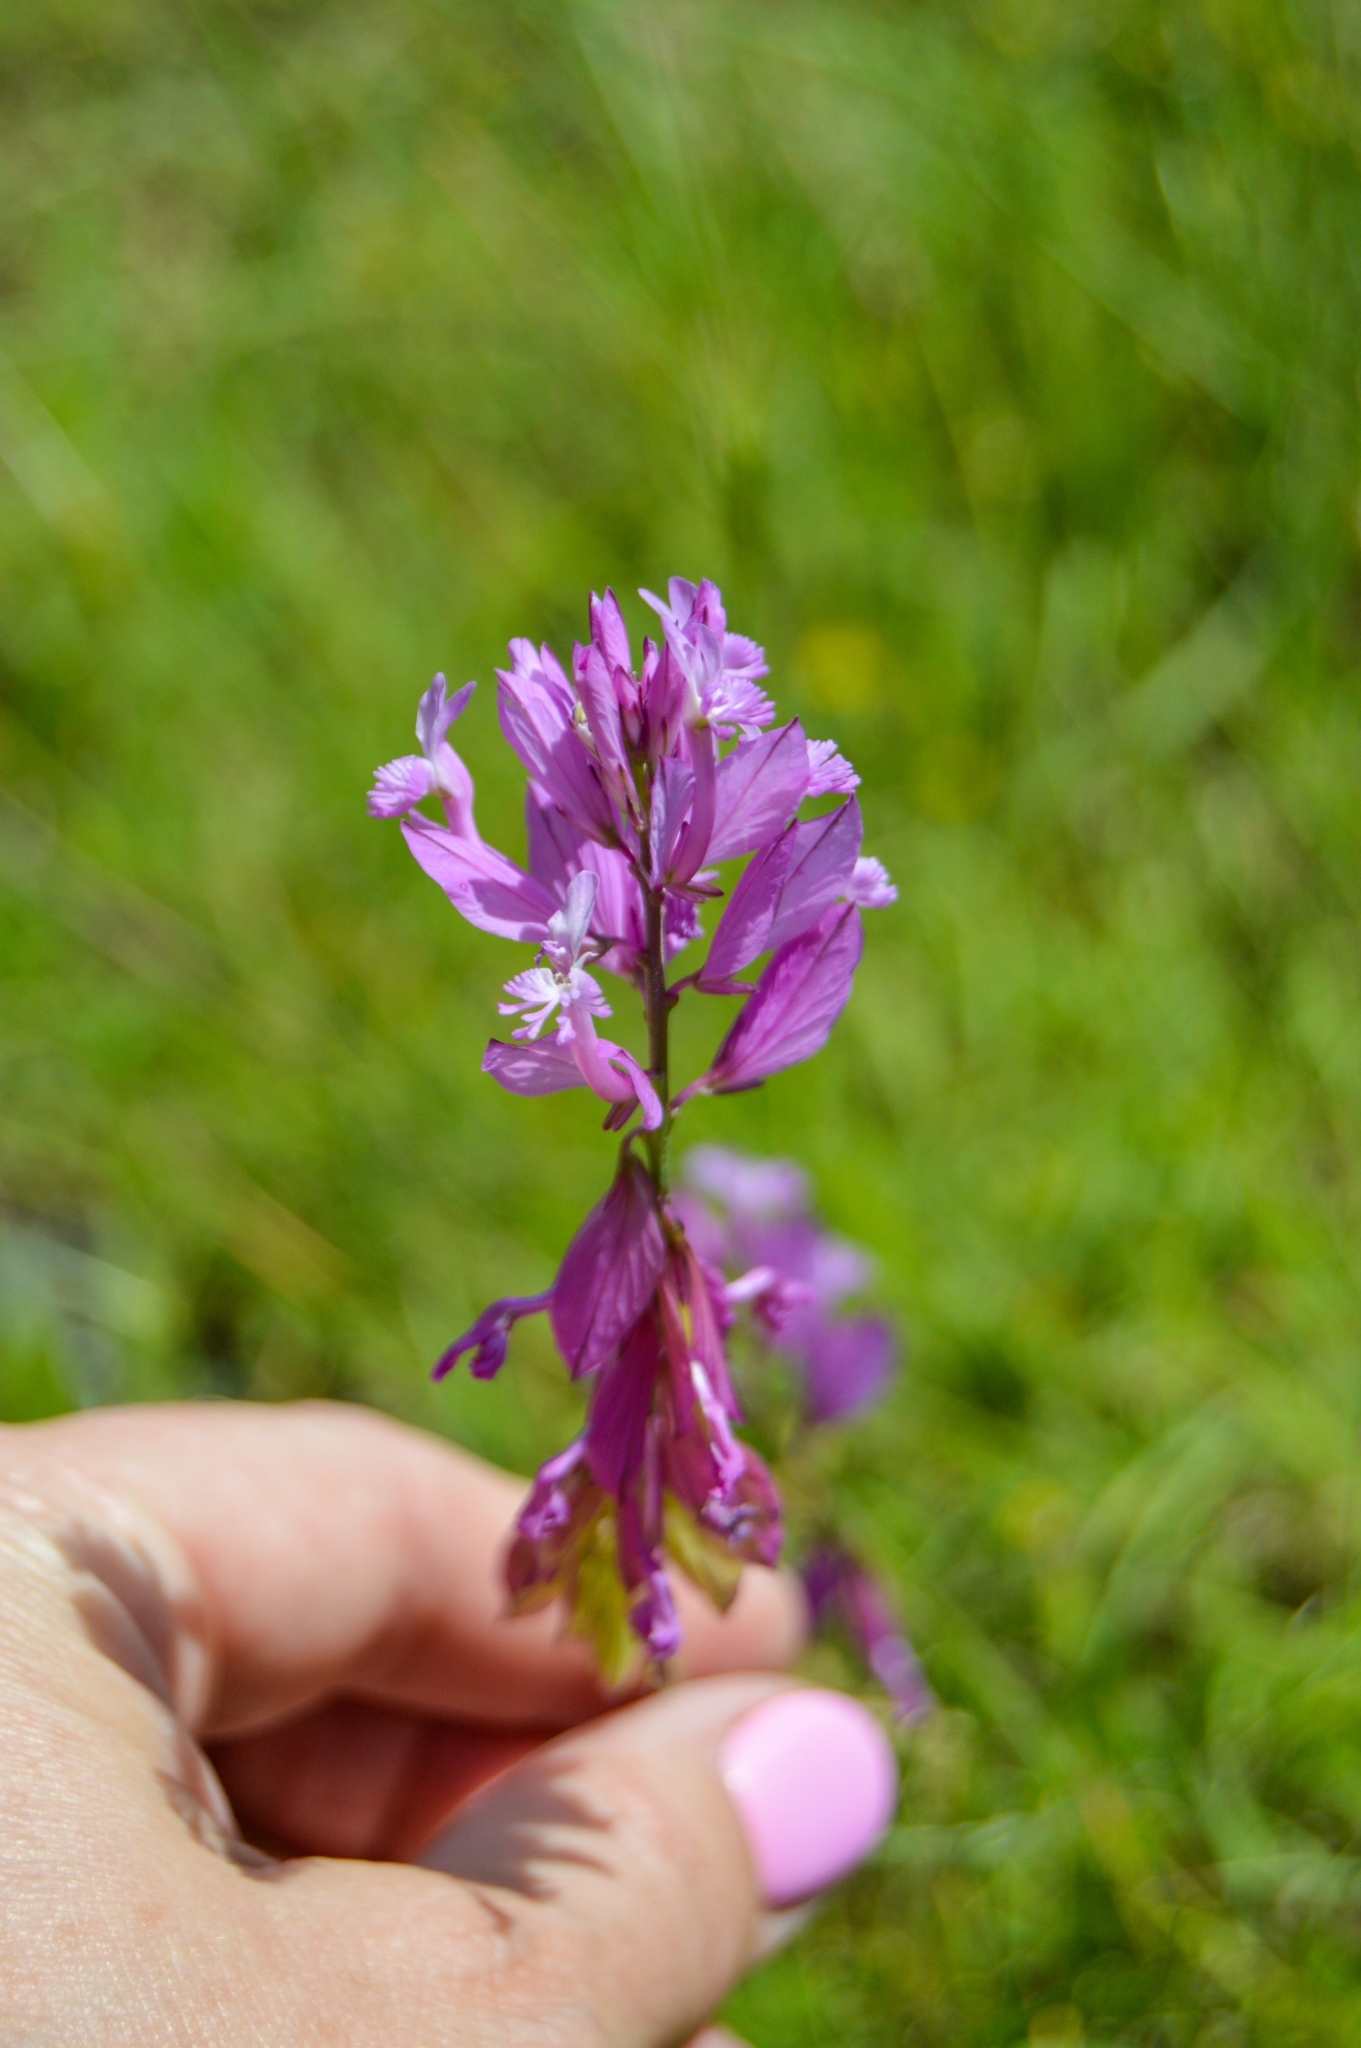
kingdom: Plantae
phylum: Tracheophyta
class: Magnoliopsida
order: Fabales
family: Polygalaceae
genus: Polygala
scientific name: Polygala major
